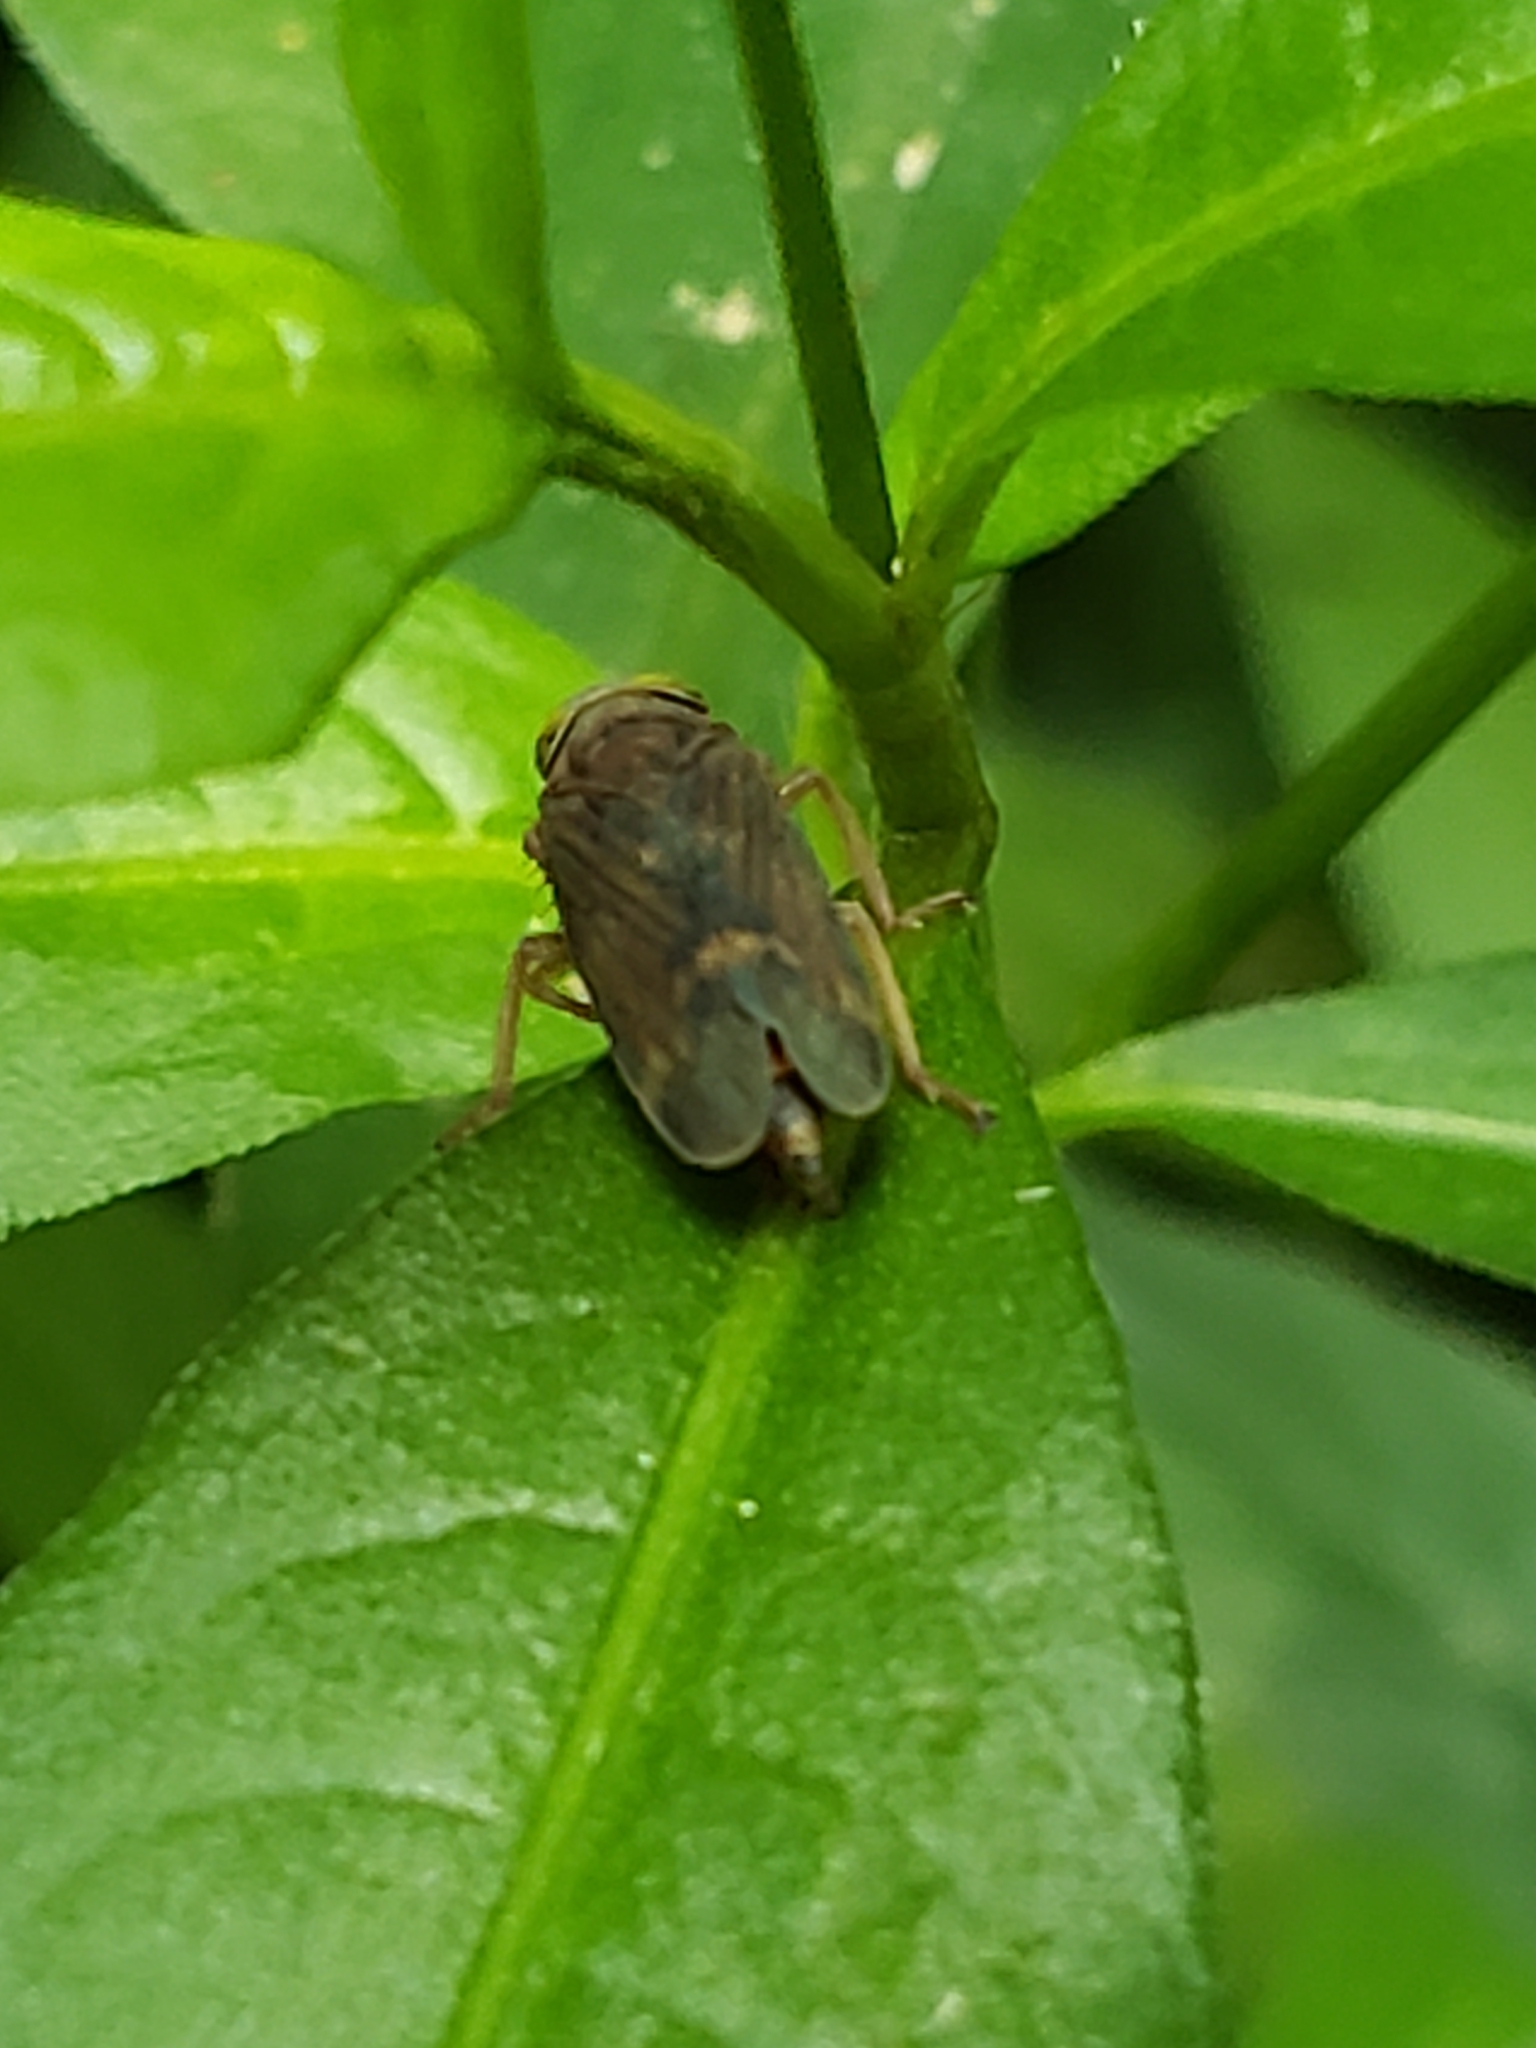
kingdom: Animalia
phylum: Arthropoda
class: Insecta
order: Hemiptera
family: Cicadellidae
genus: Jikradia
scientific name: Jikradia olitoria
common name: Coppery leafhopper
